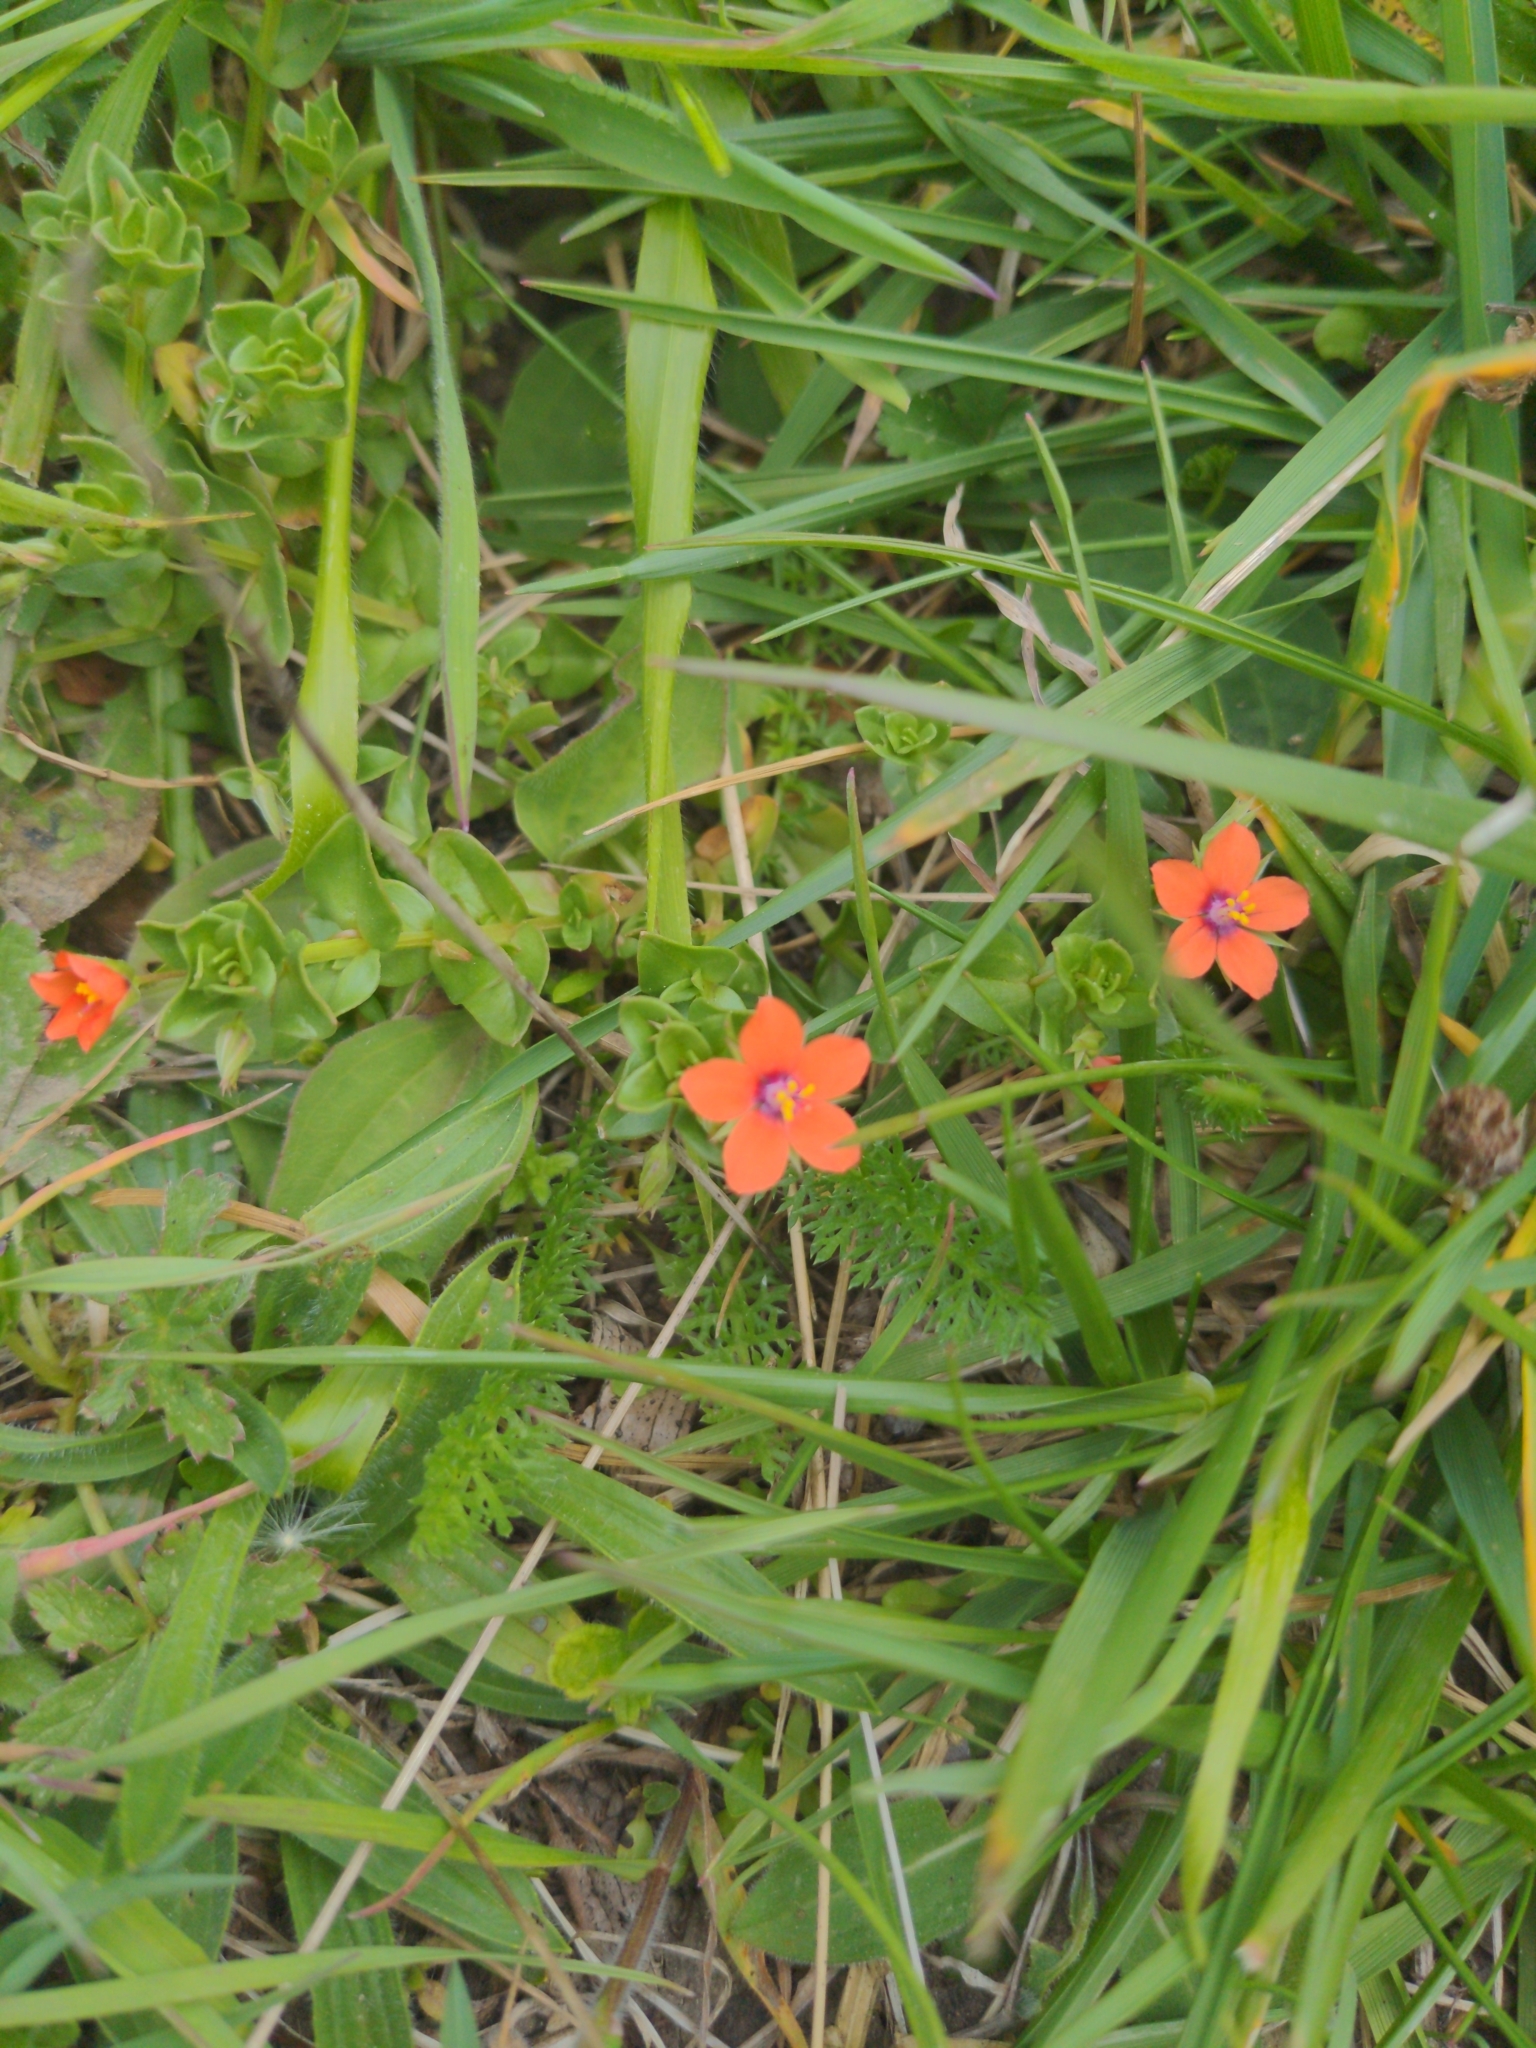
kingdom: Plantae
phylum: Tracheophyta
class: Magnoliopsida
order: Ericales
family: Primulaceae
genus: Lysimachia
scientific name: Lysimachia arvensis
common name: Scarlet pimpernel
